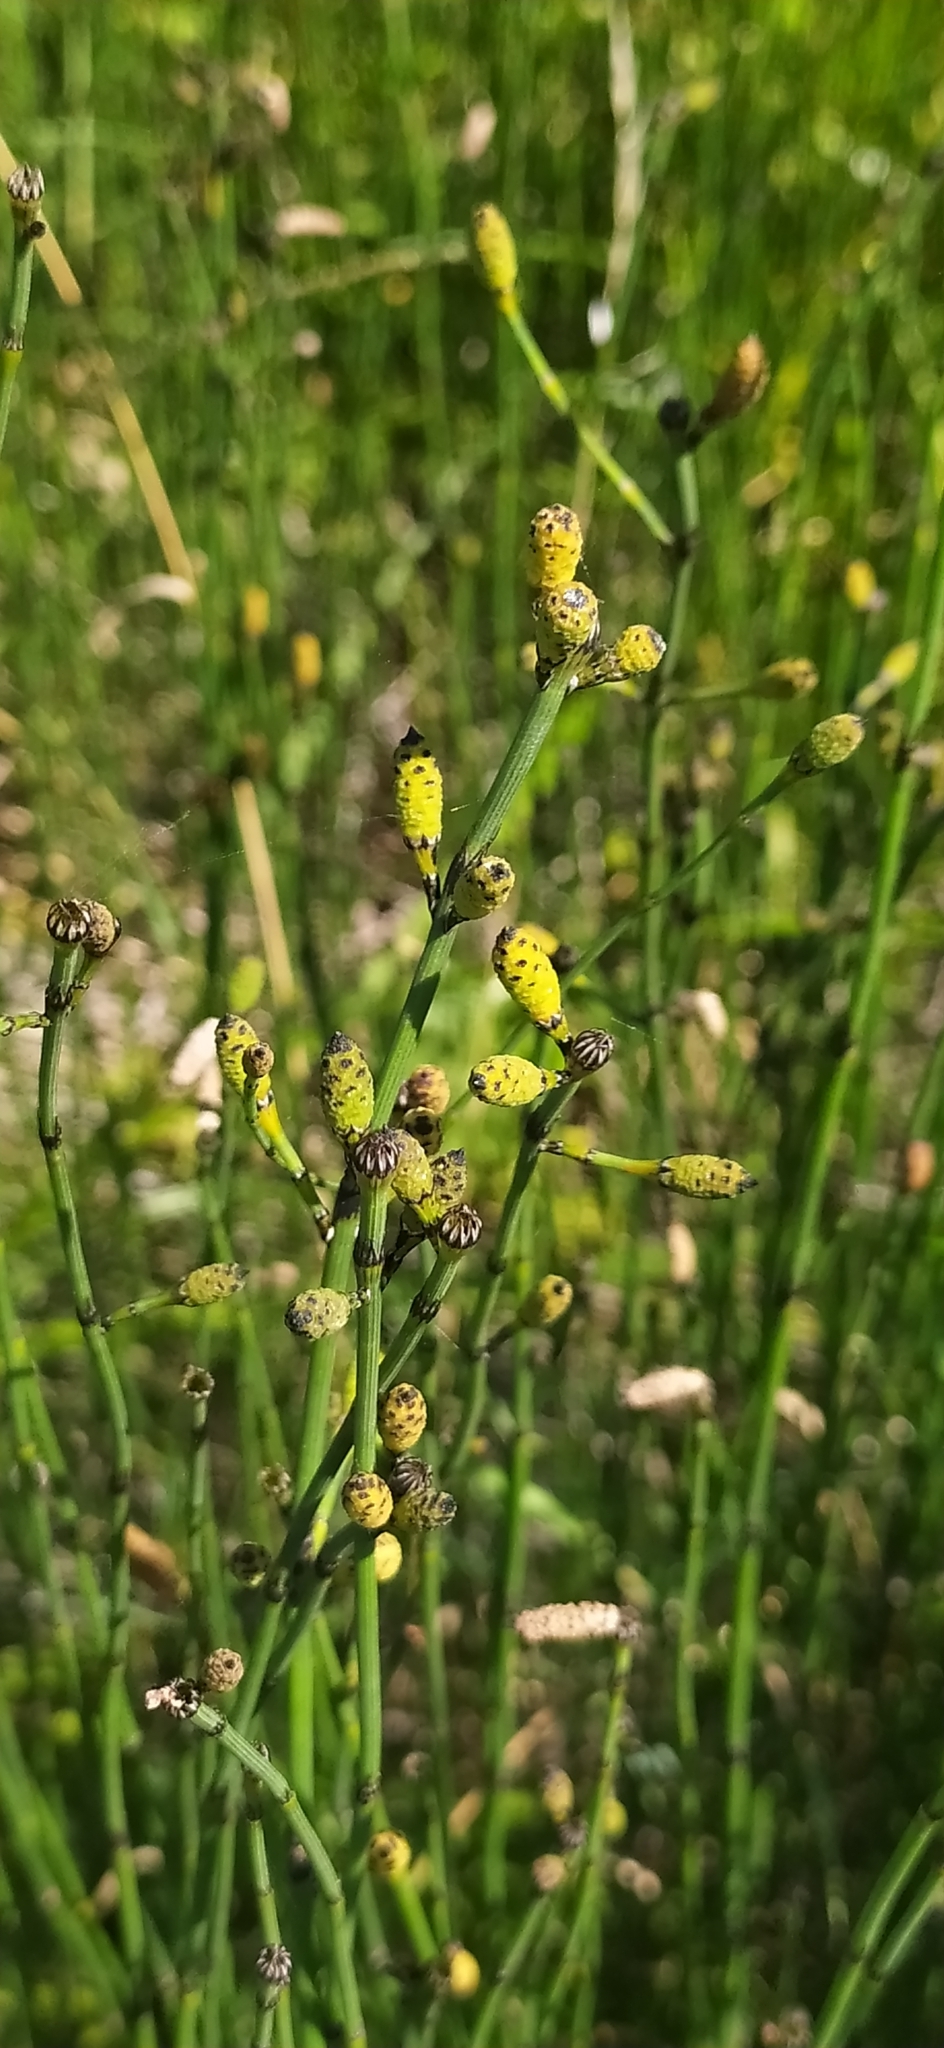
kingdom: Plantae
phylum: Tracheophyta
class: Polypodiopsida
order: Equisetales
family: Equisetaceae
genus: Equisetum
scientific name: Equisetum moorei
